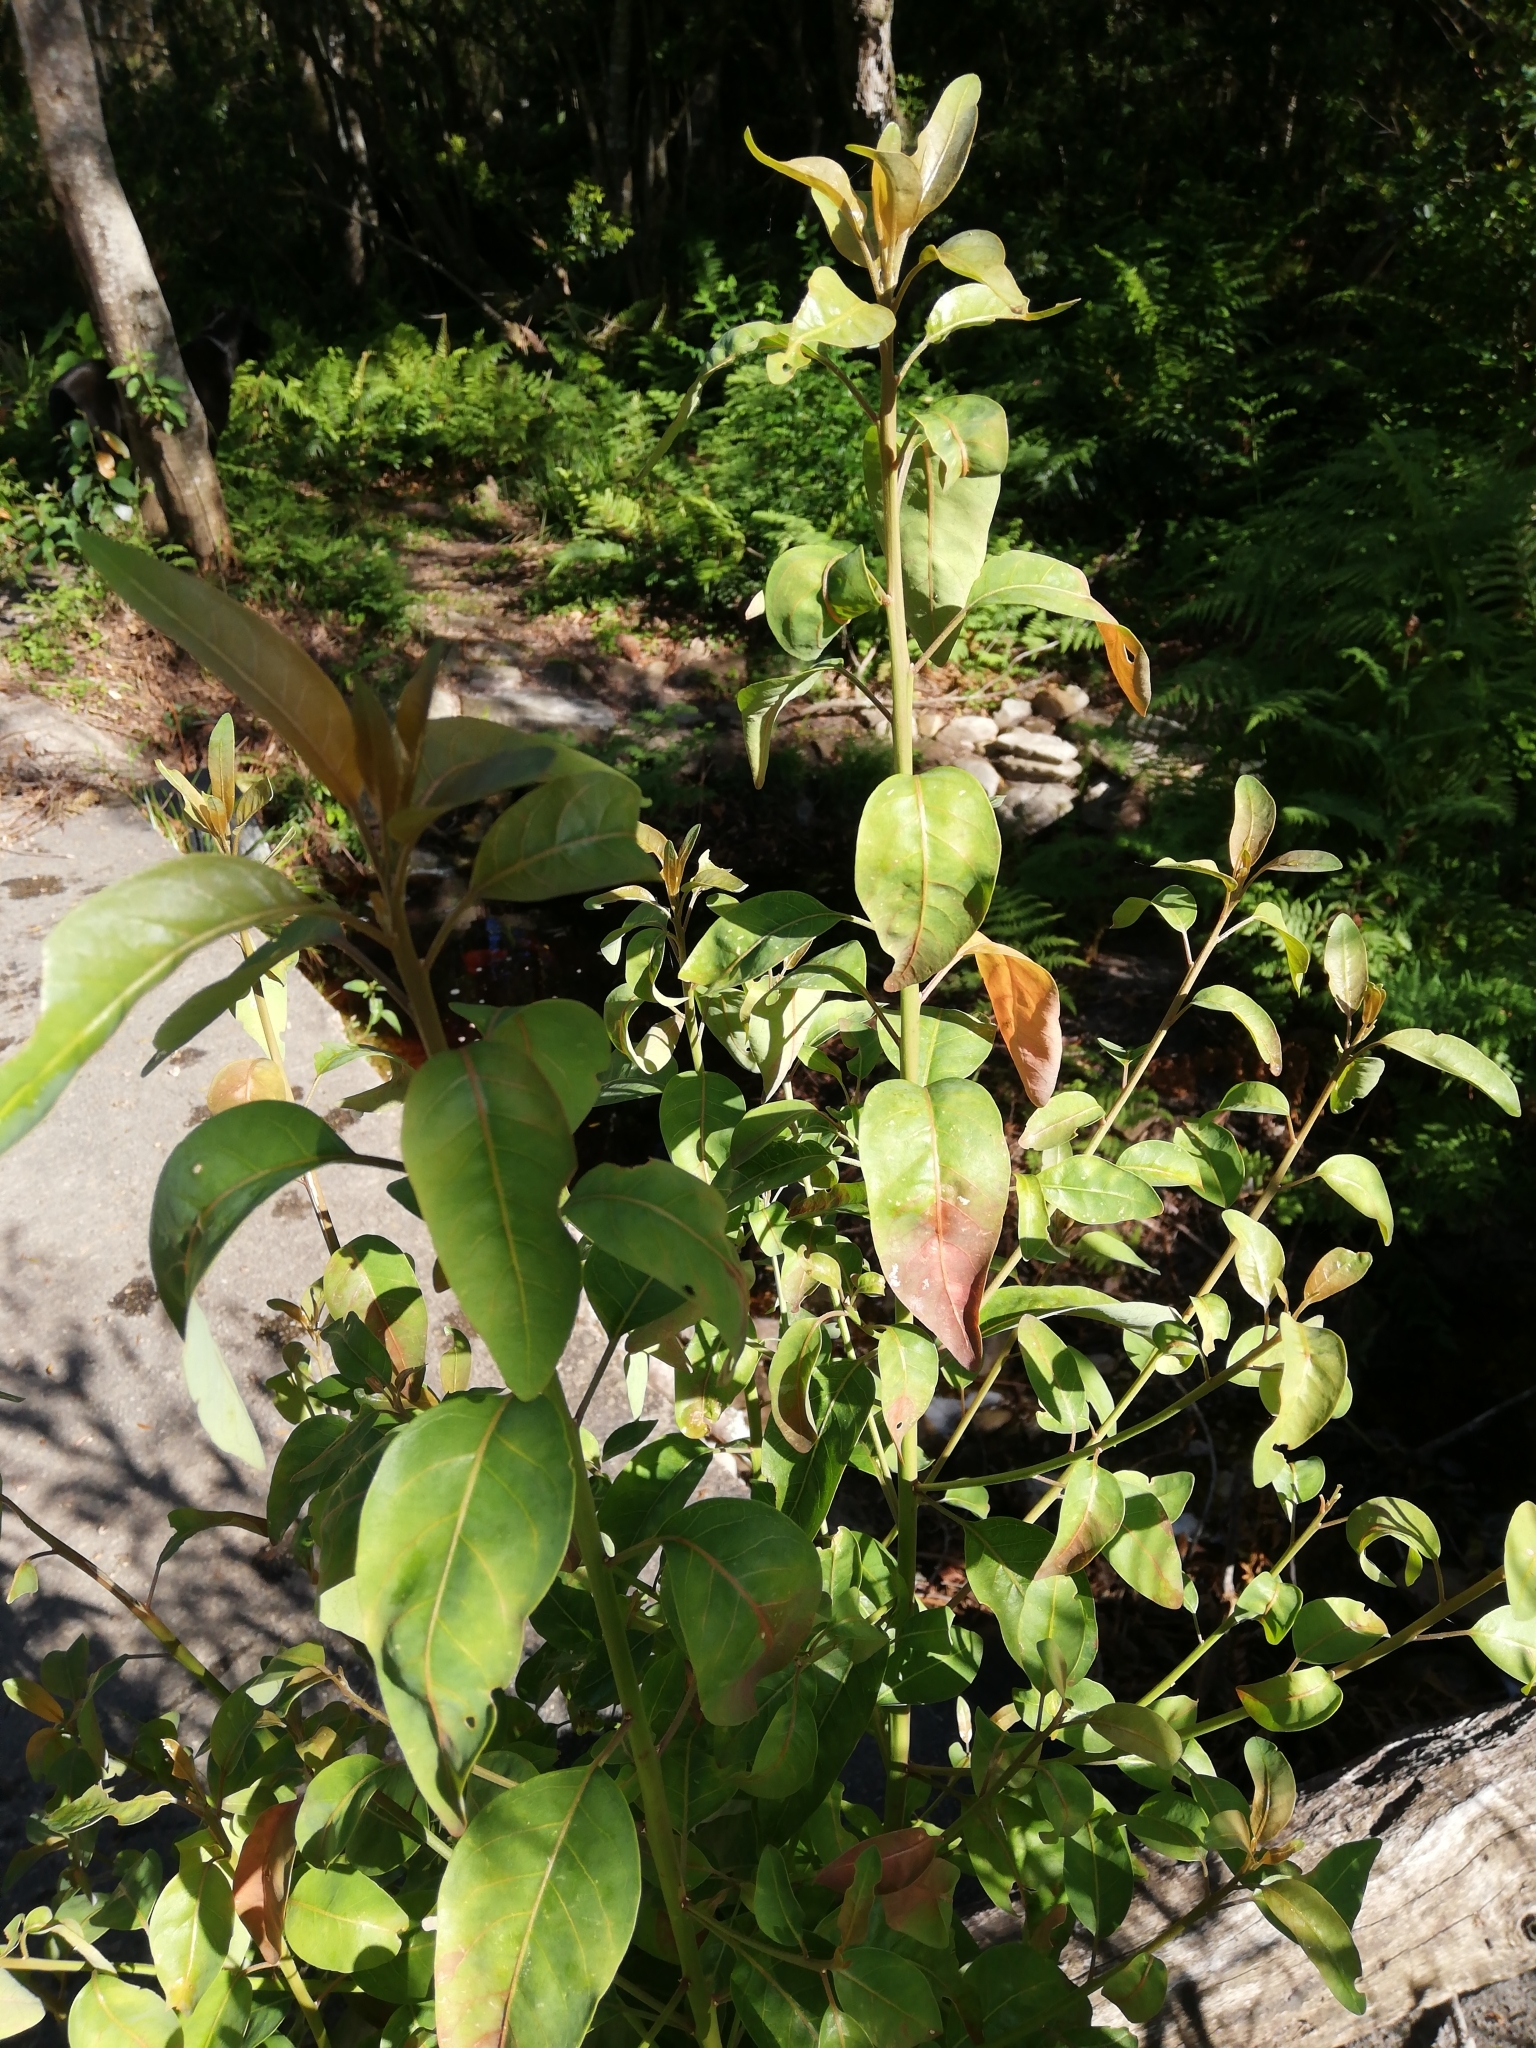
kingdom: Plantae
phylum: Tracheophyta
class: Magnoliopsida
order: Malpighiales
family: Peraceae
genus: Clutia
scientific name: Clutia pulchella
